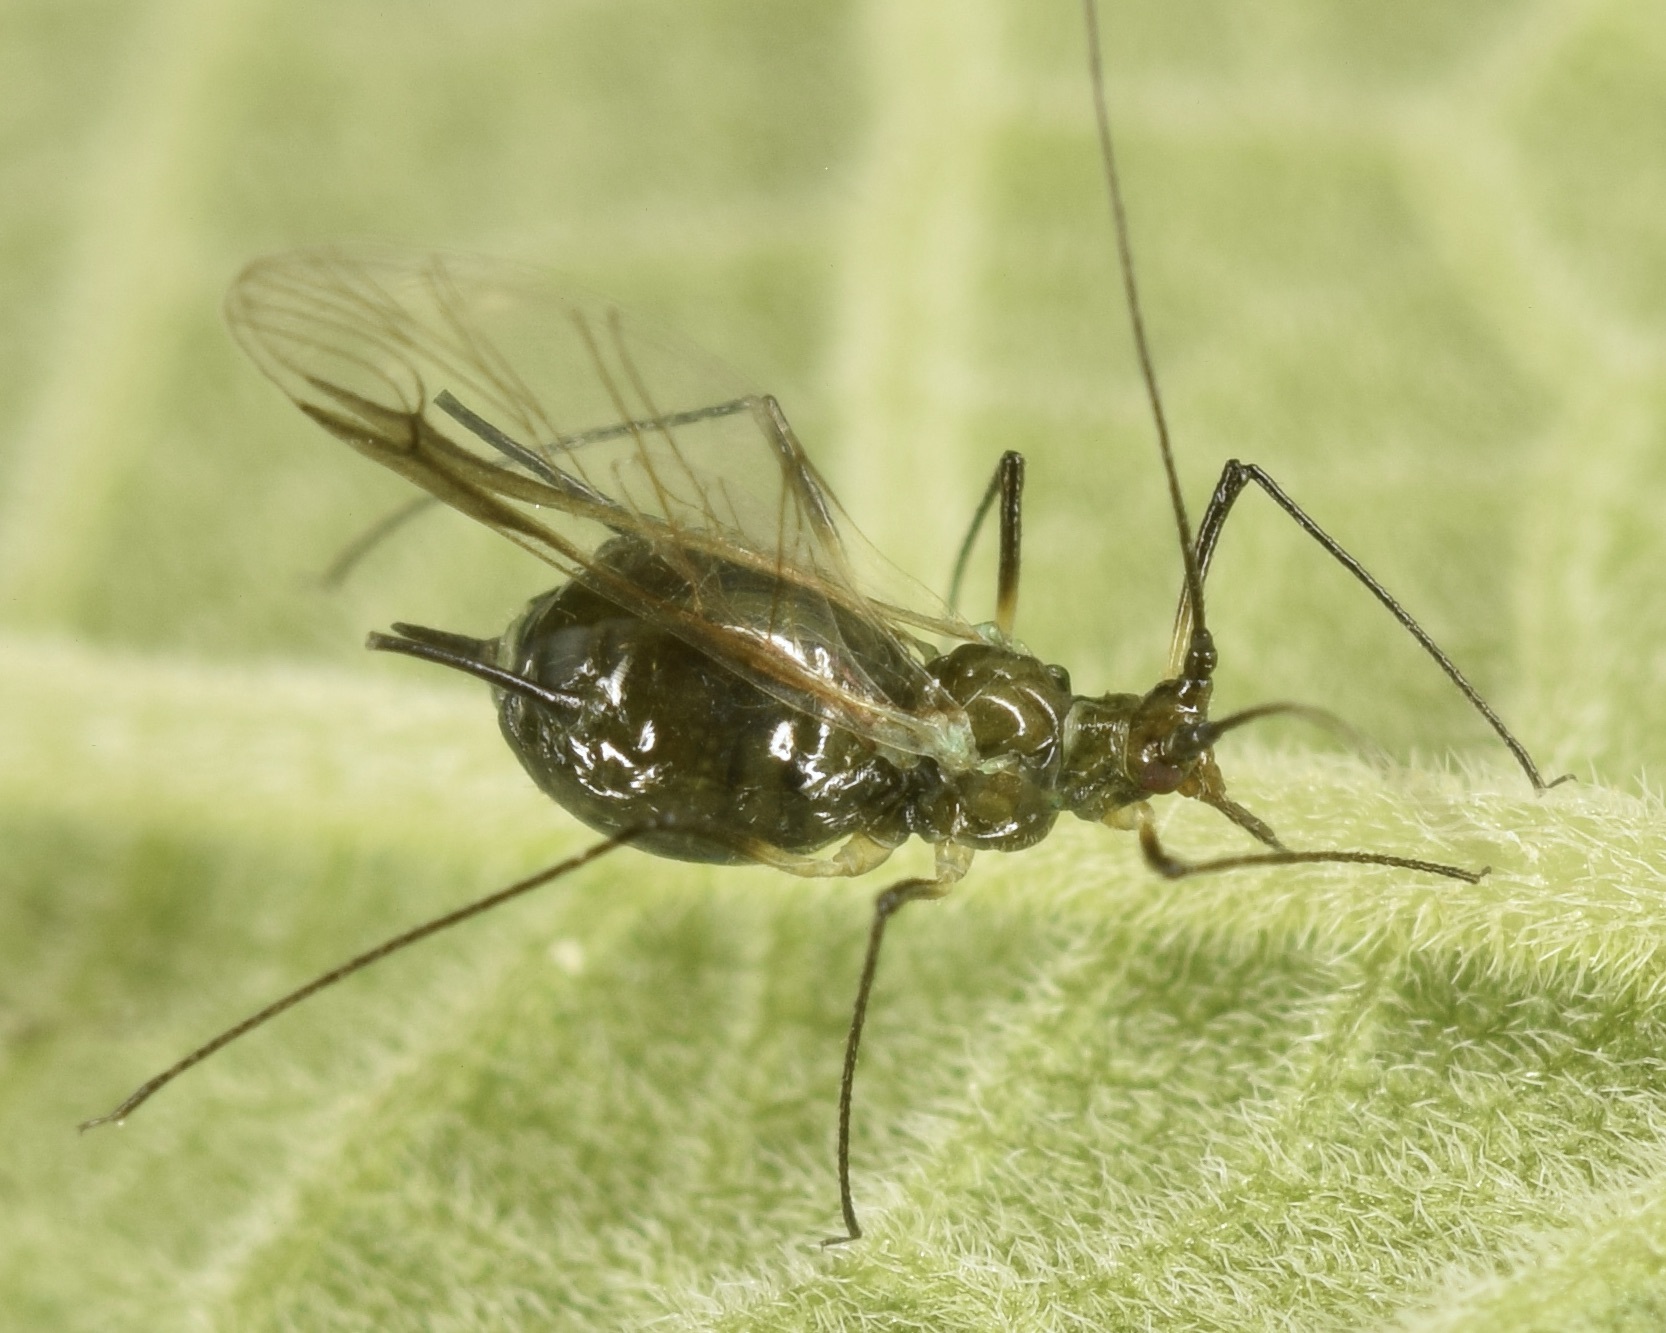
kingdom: Animalia
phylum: Arthropoda
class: Insecta
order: Hemiptera
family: Aphididae
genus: Uroleucon
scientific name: Uroleucon verbesinae
